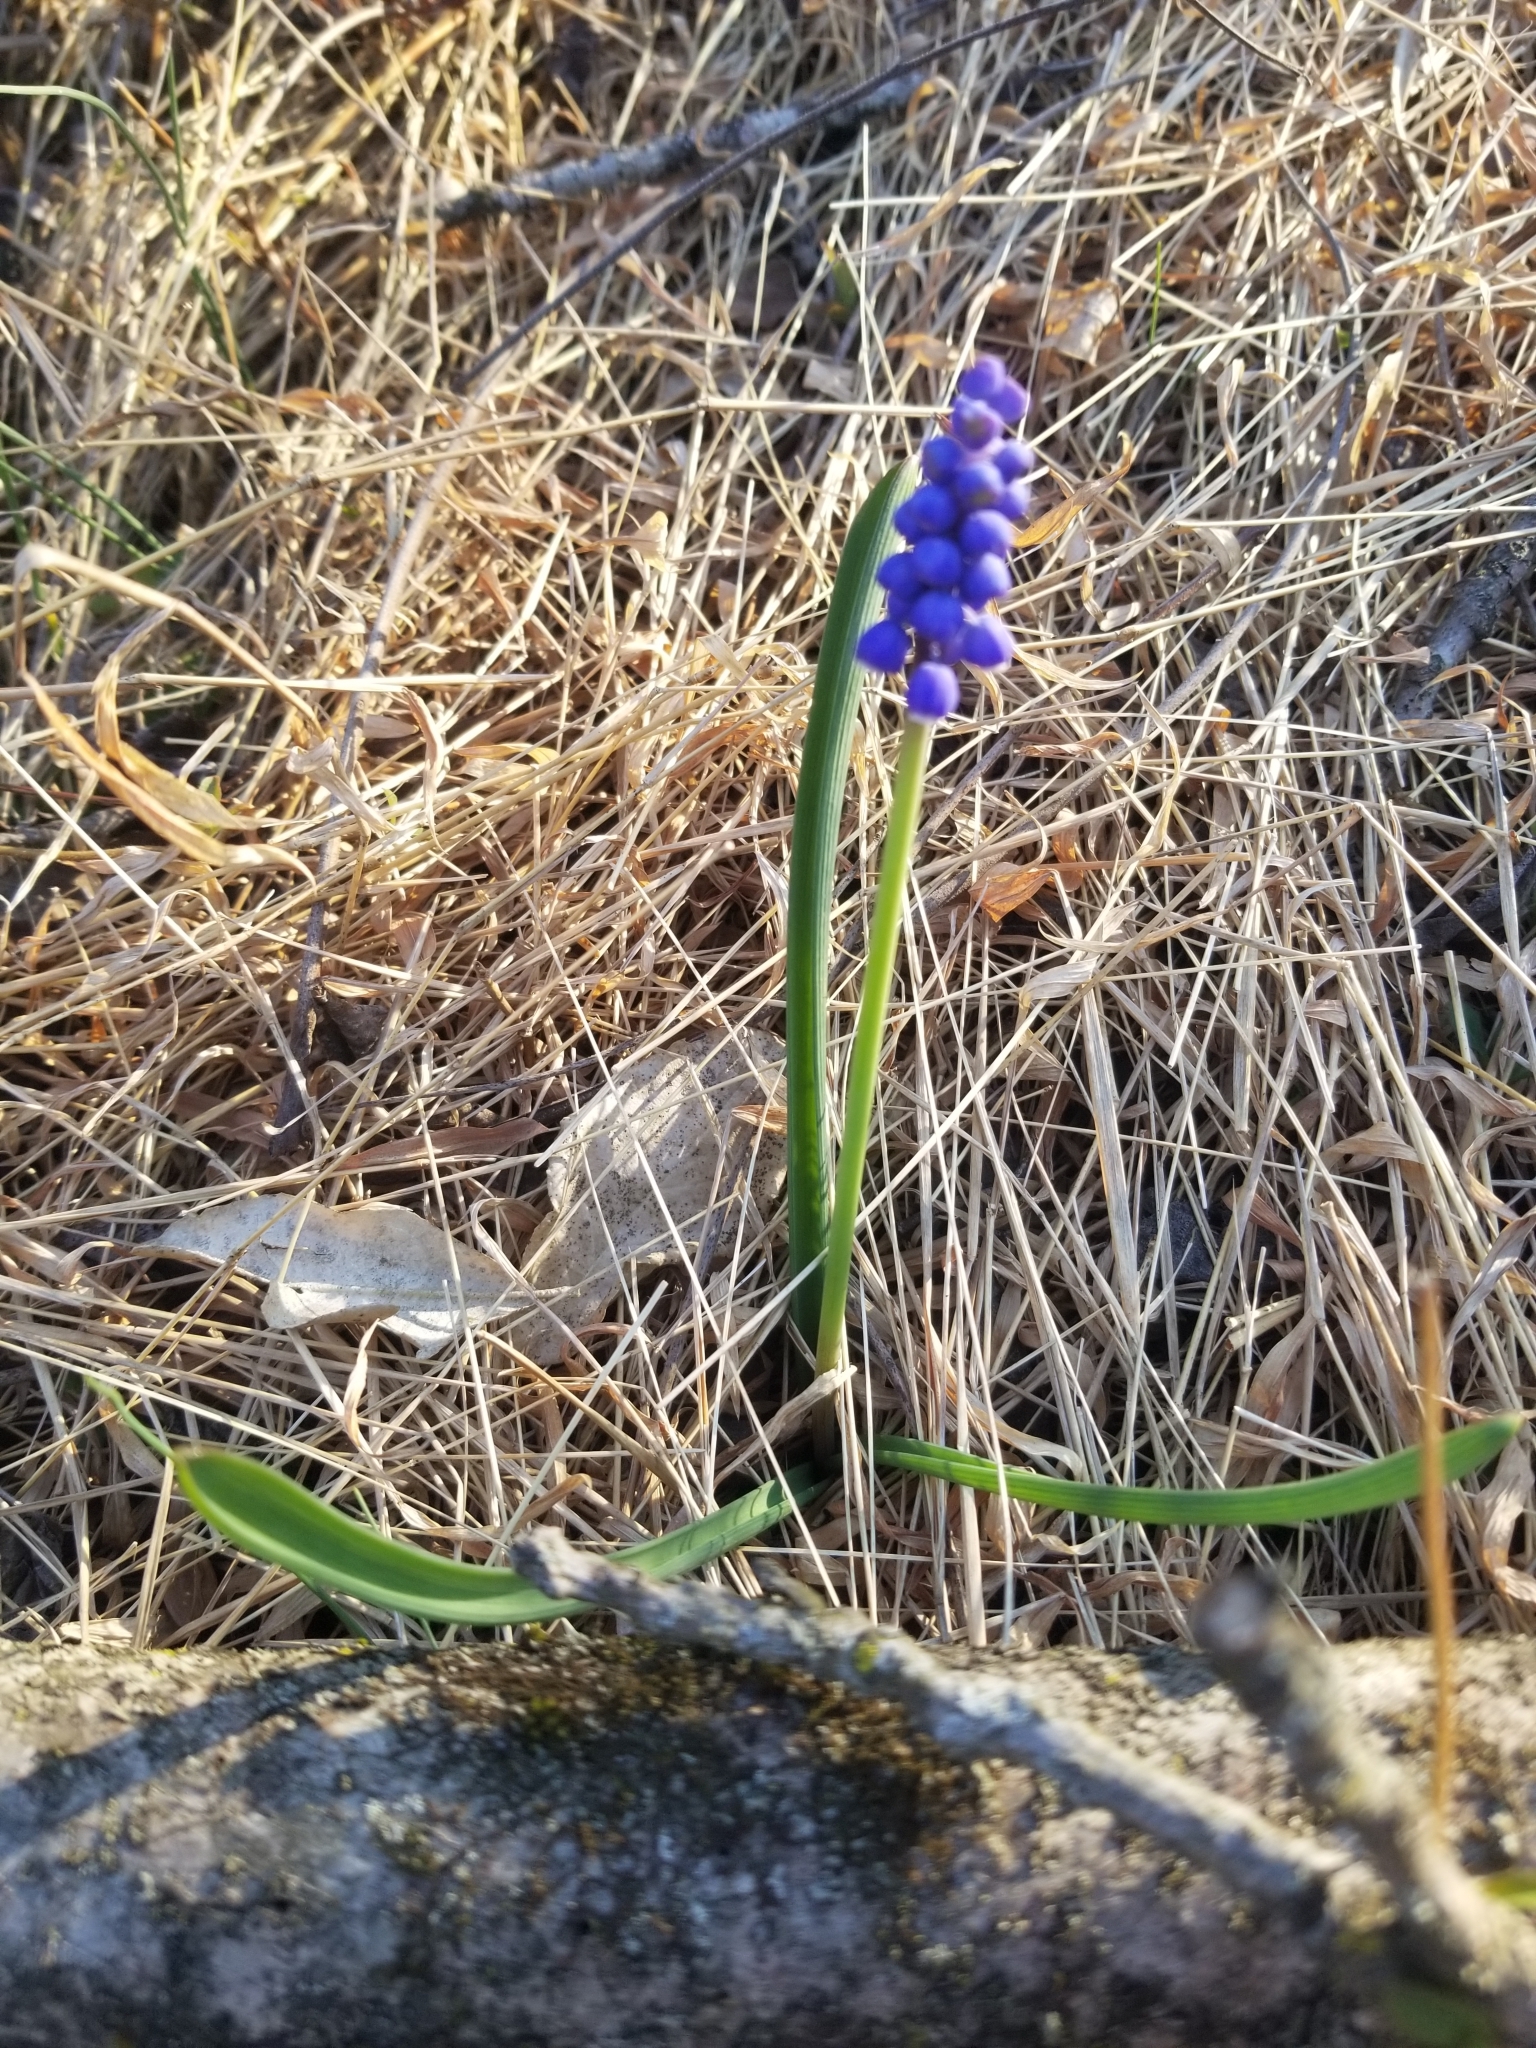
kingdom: Plantae
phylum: Tracheophyta
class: Liliopsida
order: Asparagales
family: Asparagaceae
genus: Muscari
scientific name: Muscari botryoides
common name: Compact grape-hyacinth
